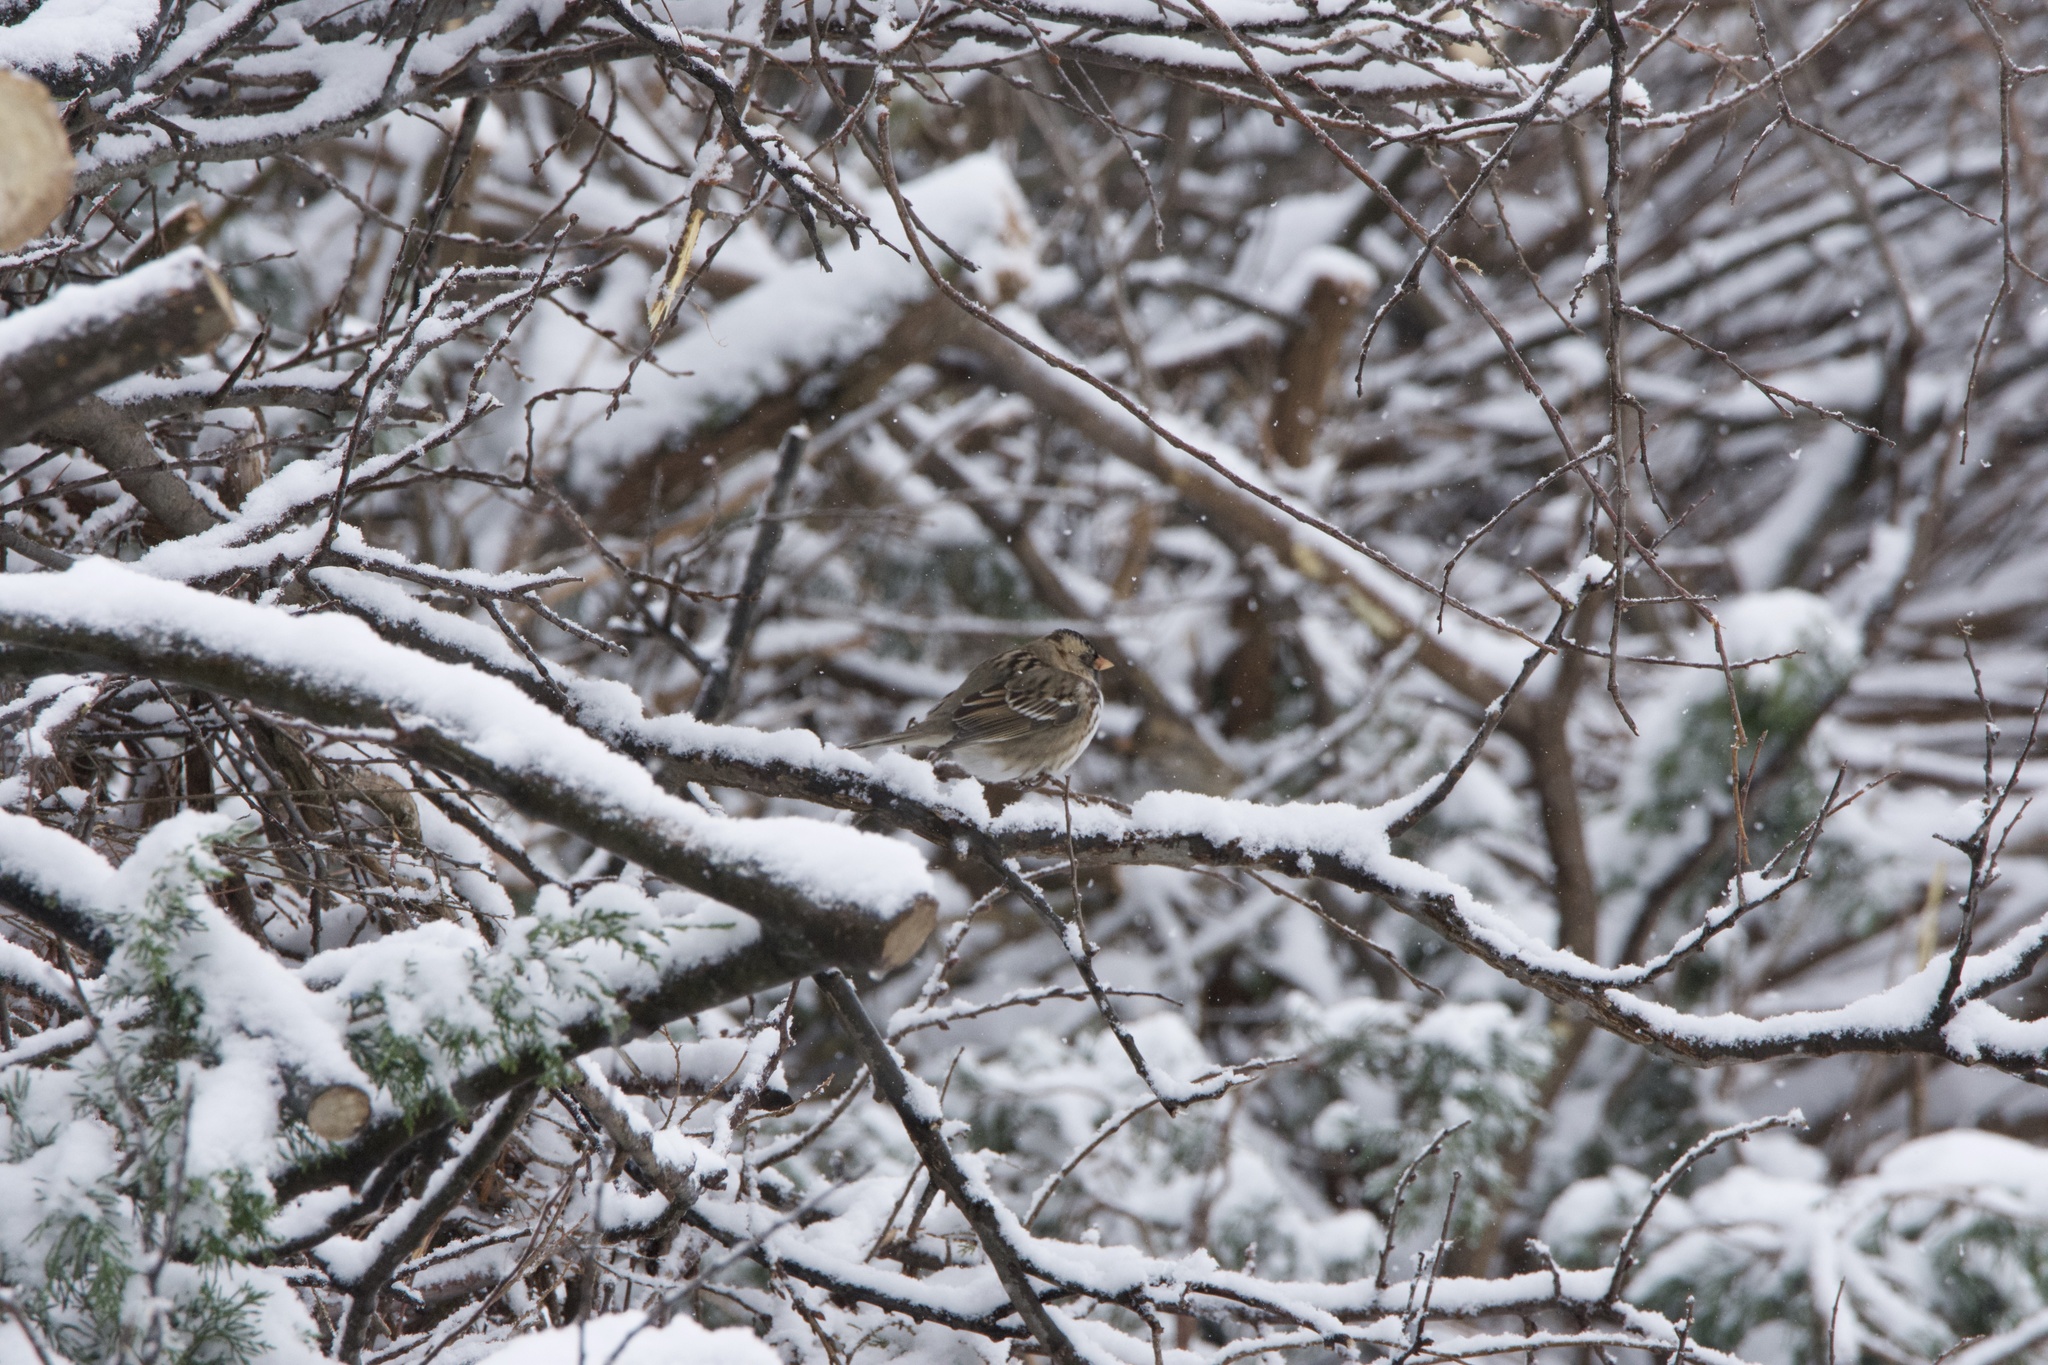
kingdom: Animalia
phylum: Chordata
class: Aves
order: Passeriformes
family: Passerellidae
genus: Zonotrichia
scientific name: Zonotrichia querula
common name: Harris's sparrow
